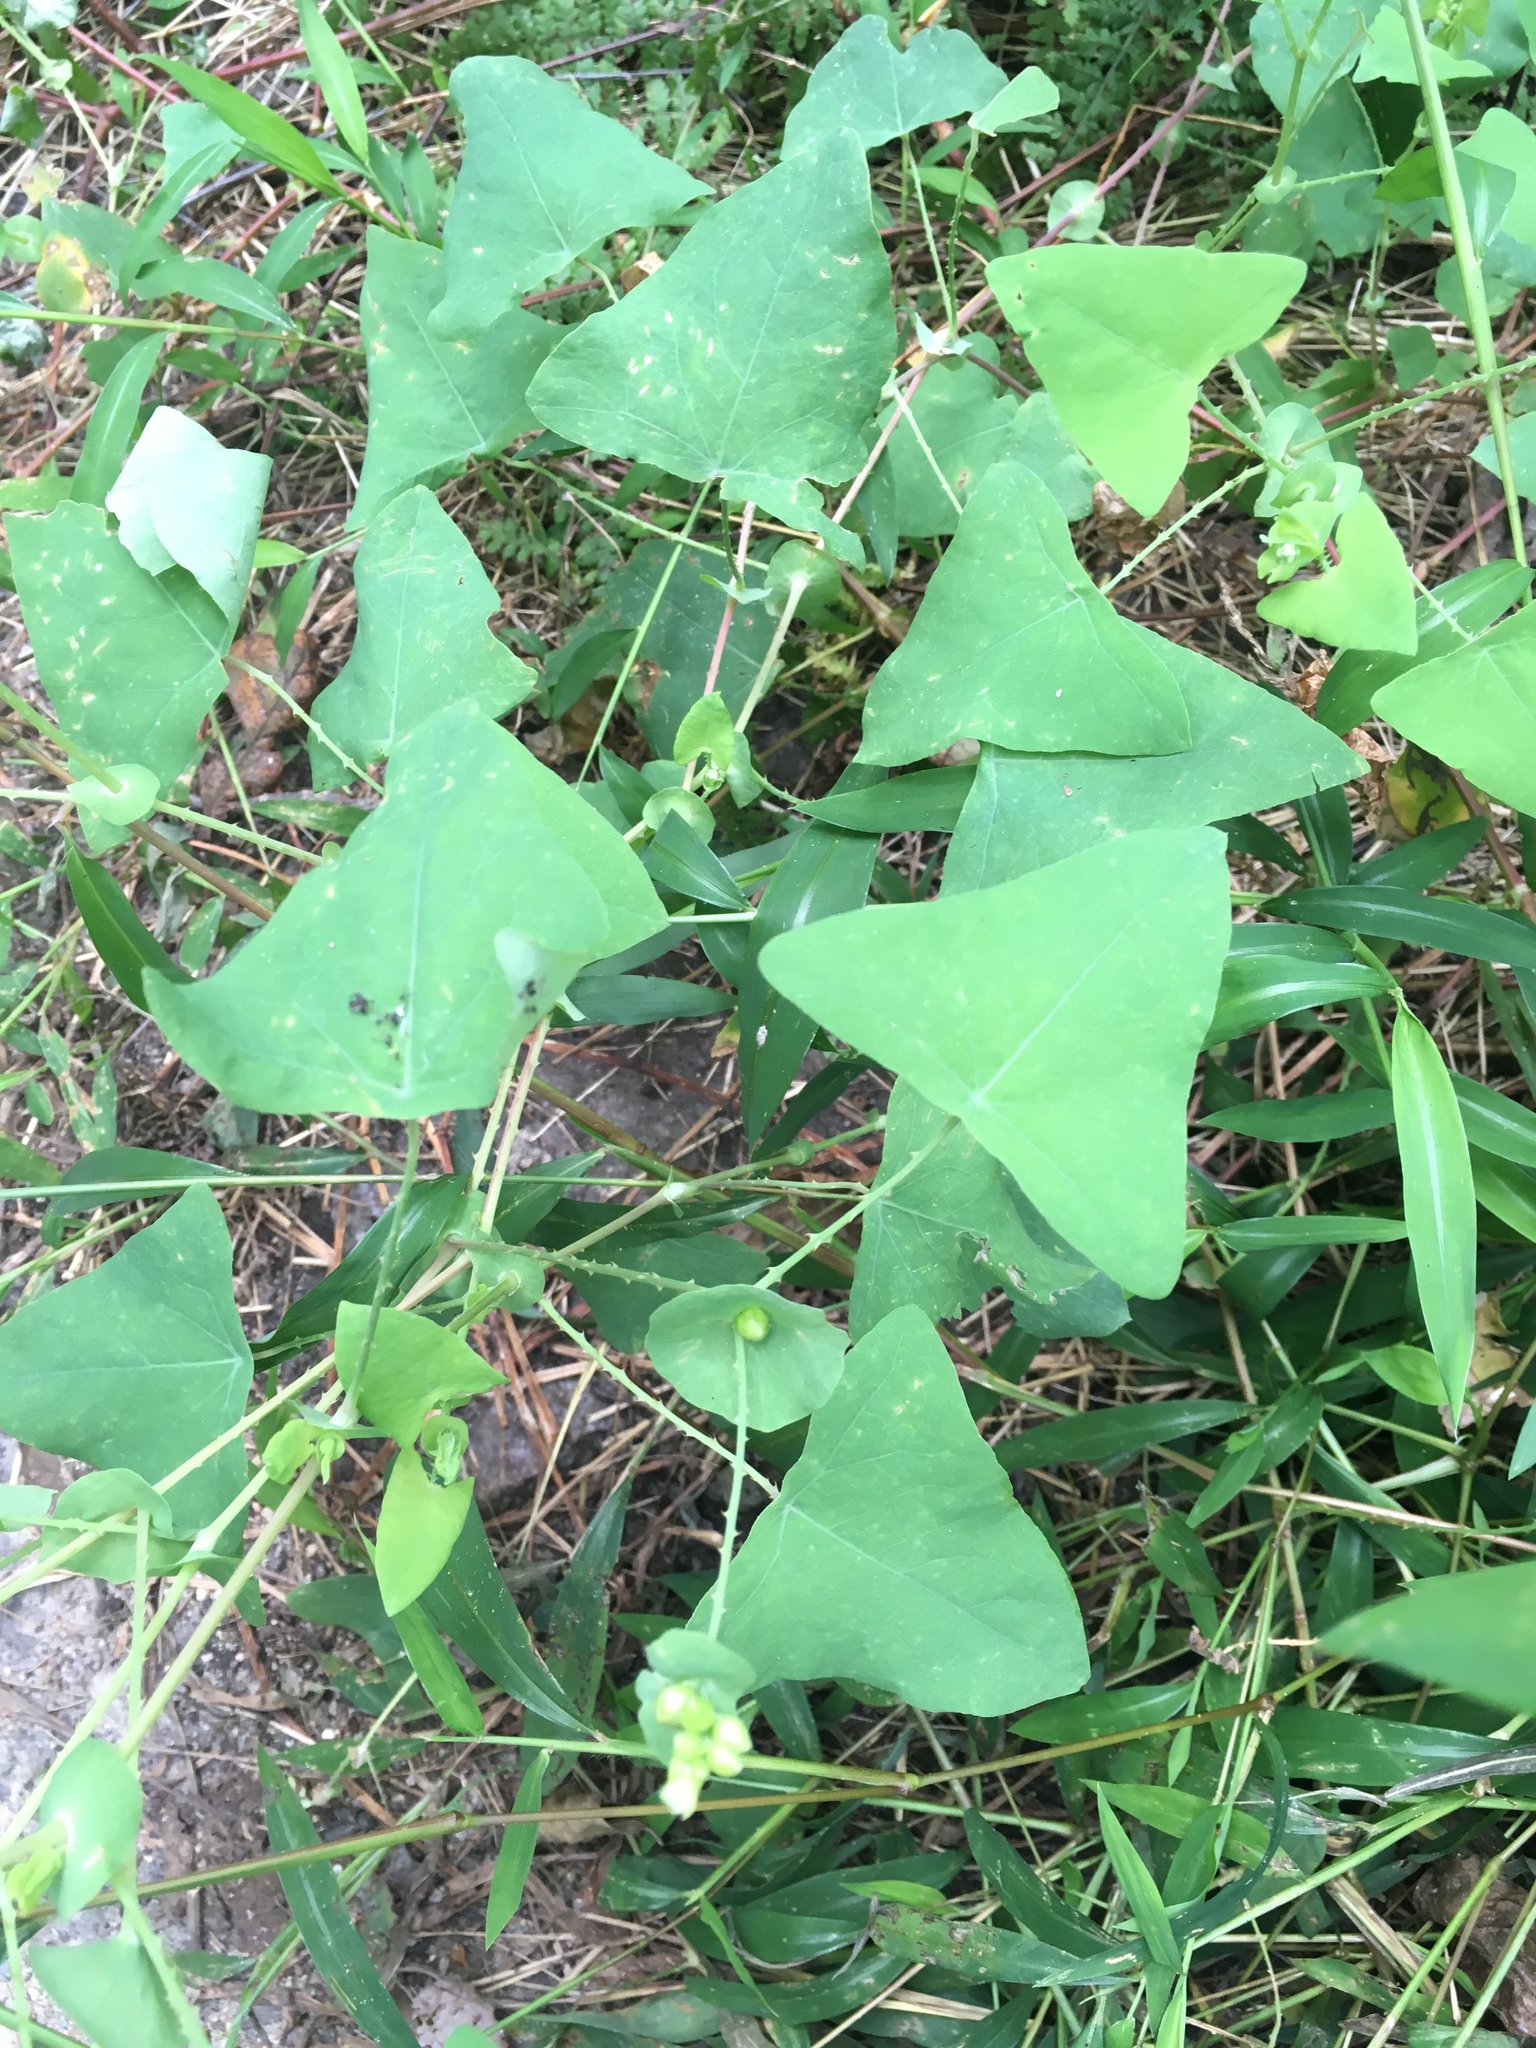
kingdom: Plantae
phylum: Tracheophyta
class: Magnoliopsida
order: Caryophyllales
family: Polygonaceae
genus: Persicaria
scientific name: Persicaria perfoliata
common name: Asiatic tearthumb
